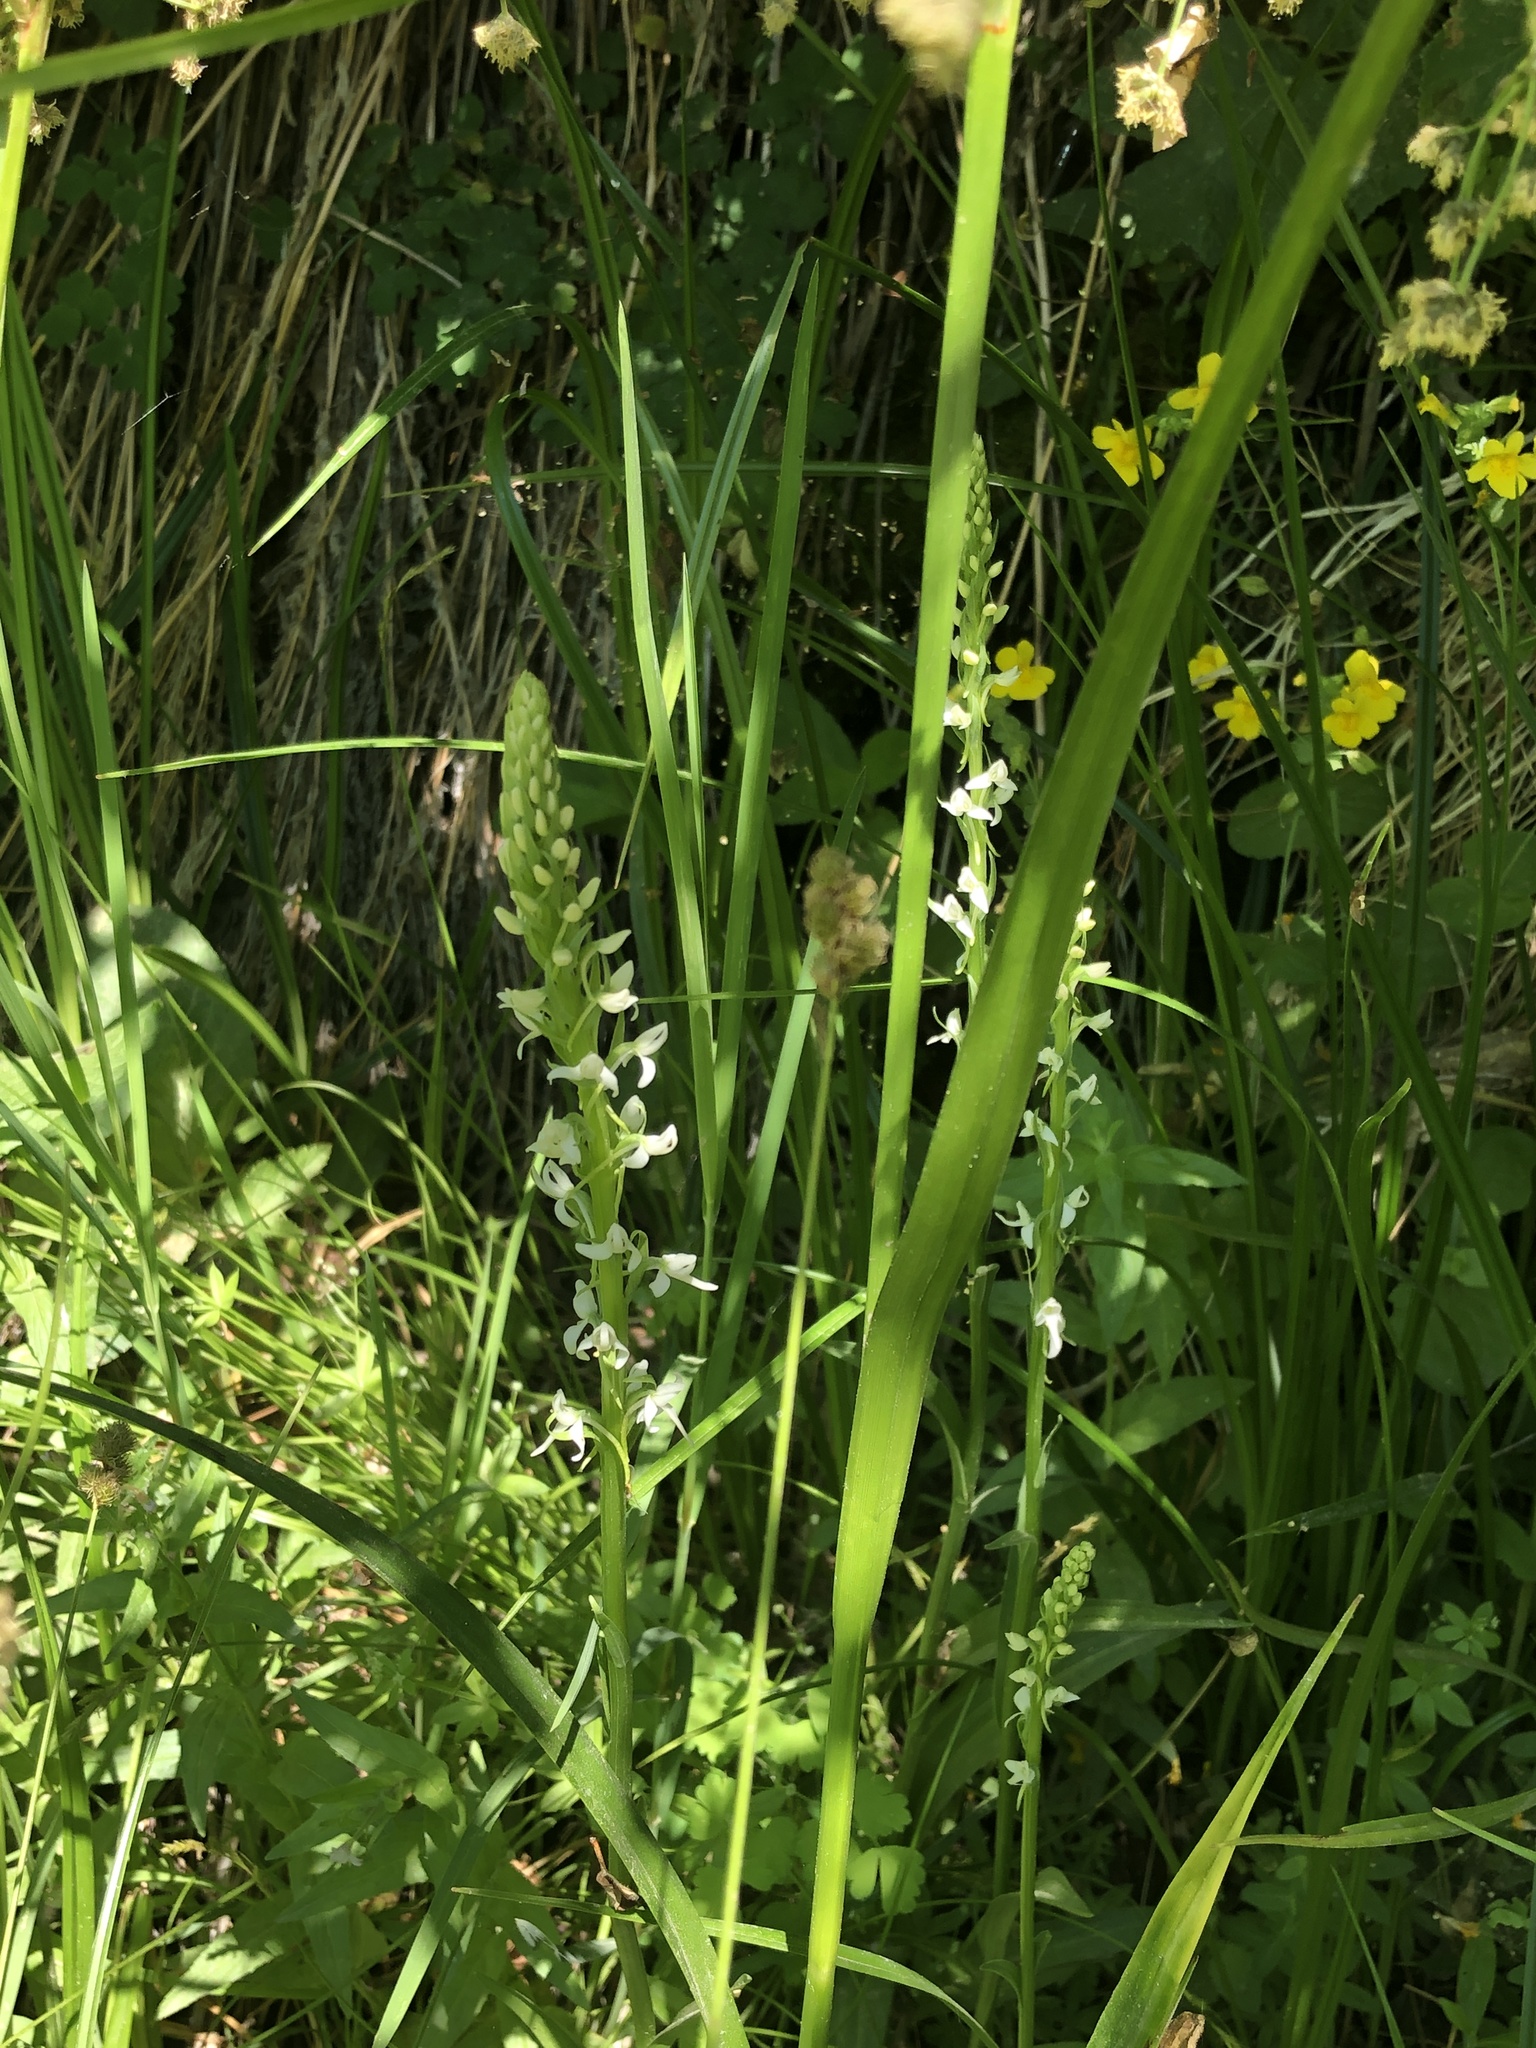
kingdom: Plantae
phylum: Tracheophyta
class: Liliopsida
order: Asparagales
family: Orchidaceae
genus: Platanthera
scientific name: Platanthera dilatata
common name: Bog candles
